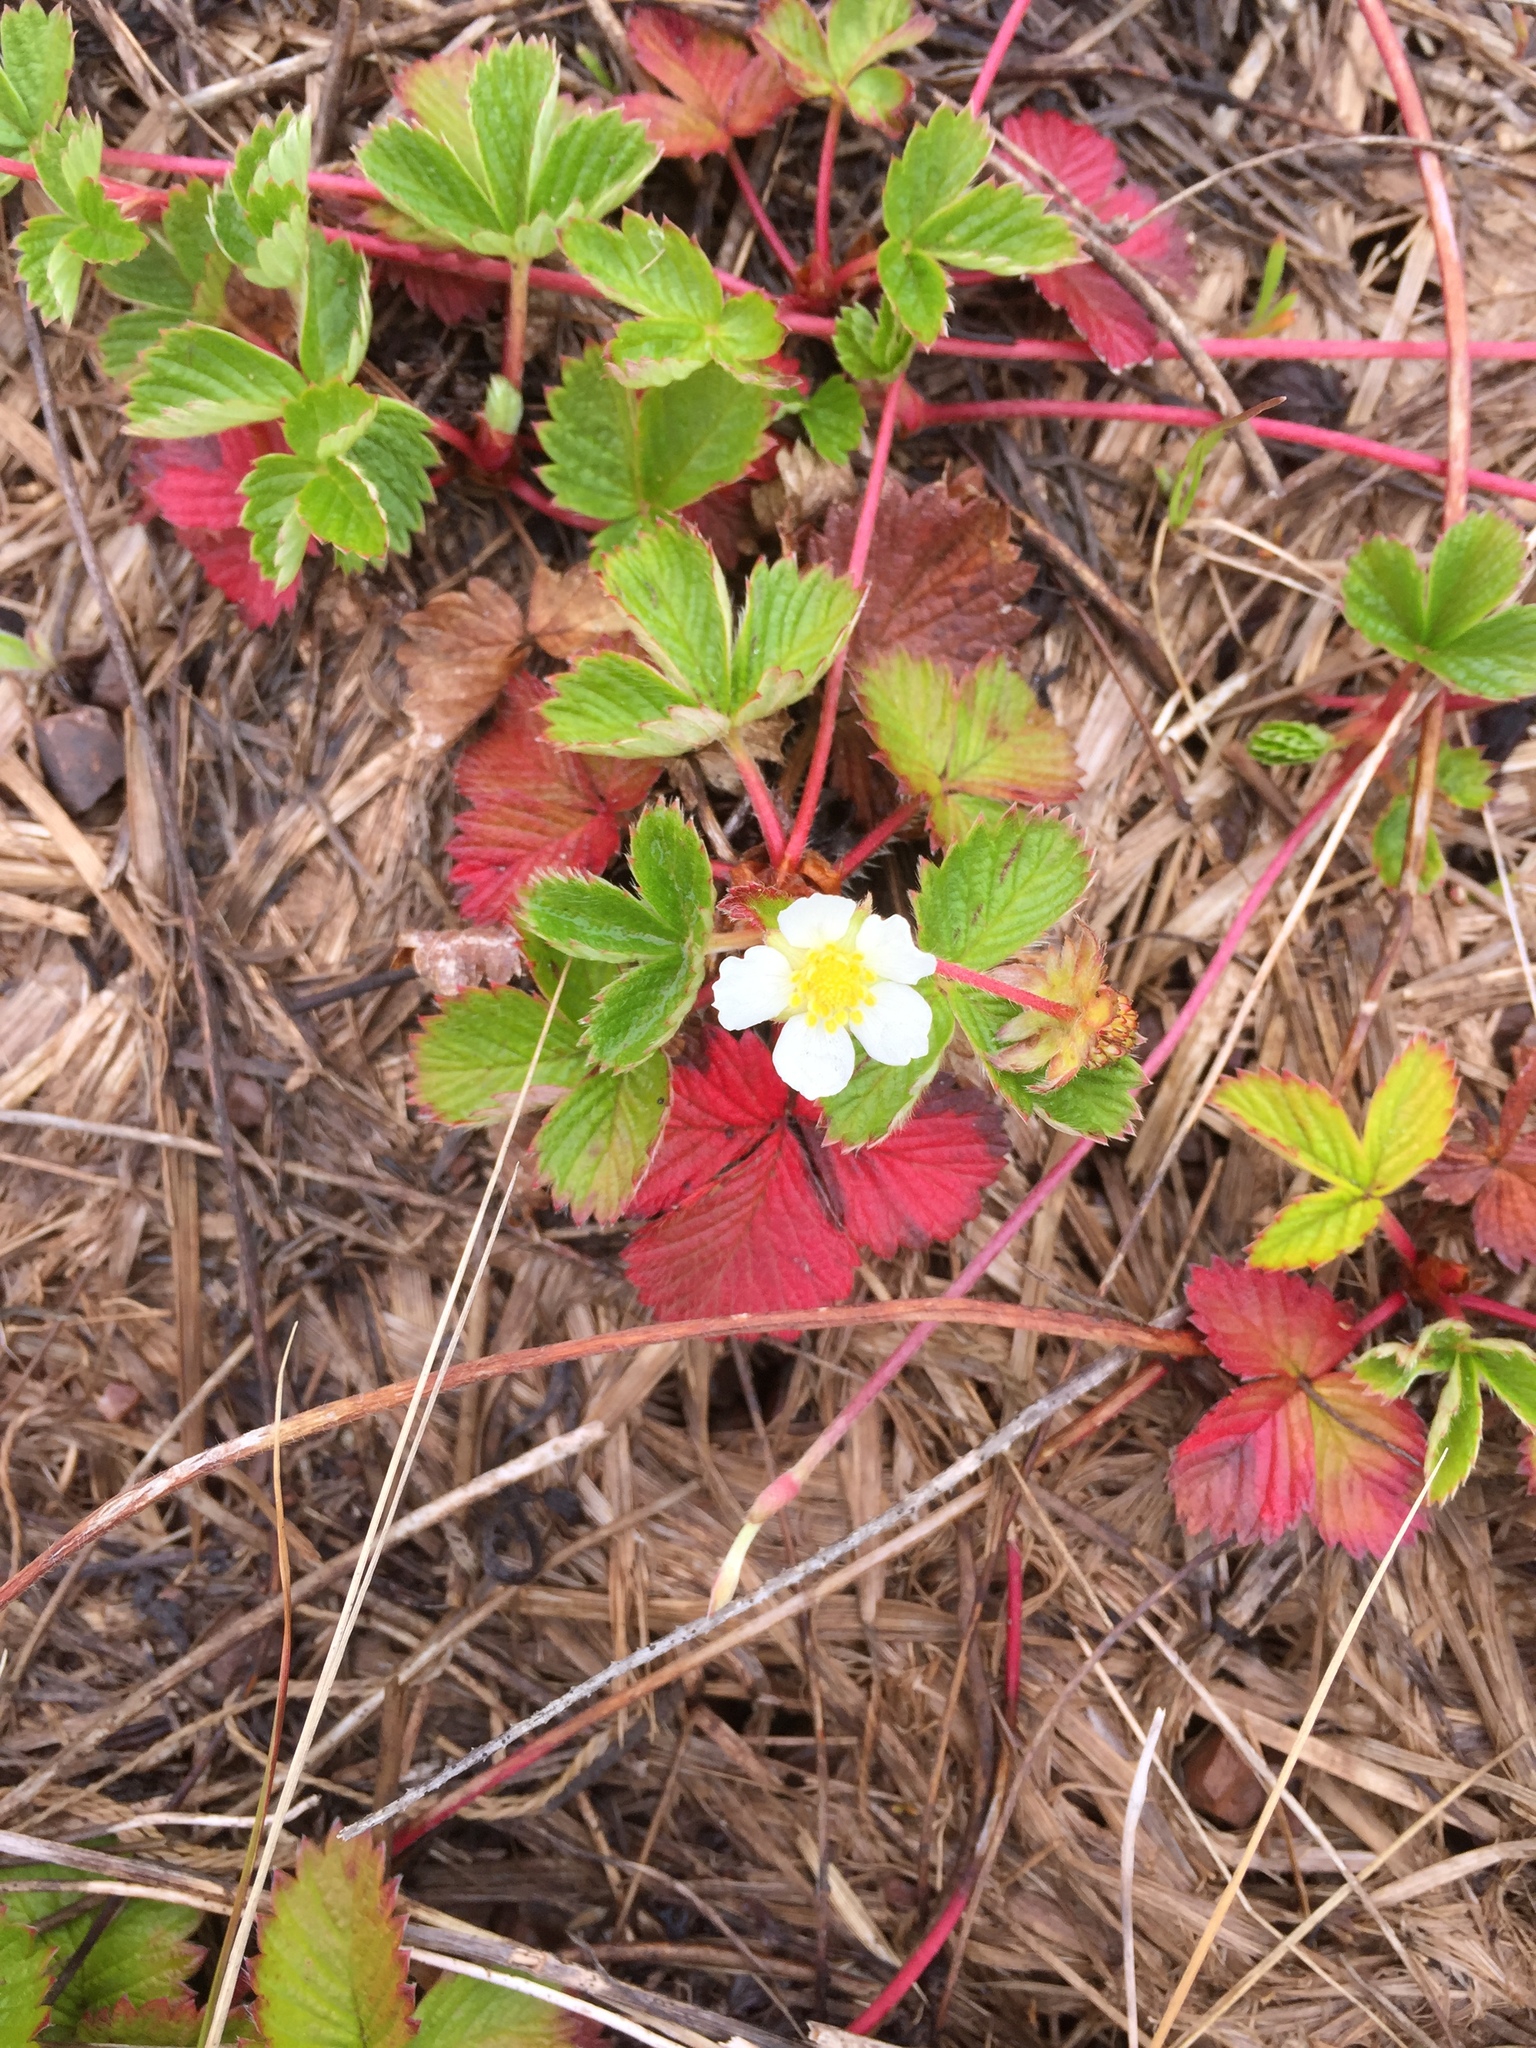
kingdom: Plantae
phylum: Tracheophyta
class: Magnoliopsida
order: Rosales
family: Rosaceae
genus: Fragaria
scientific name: Fragaria vesca
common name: Wild strawberry
